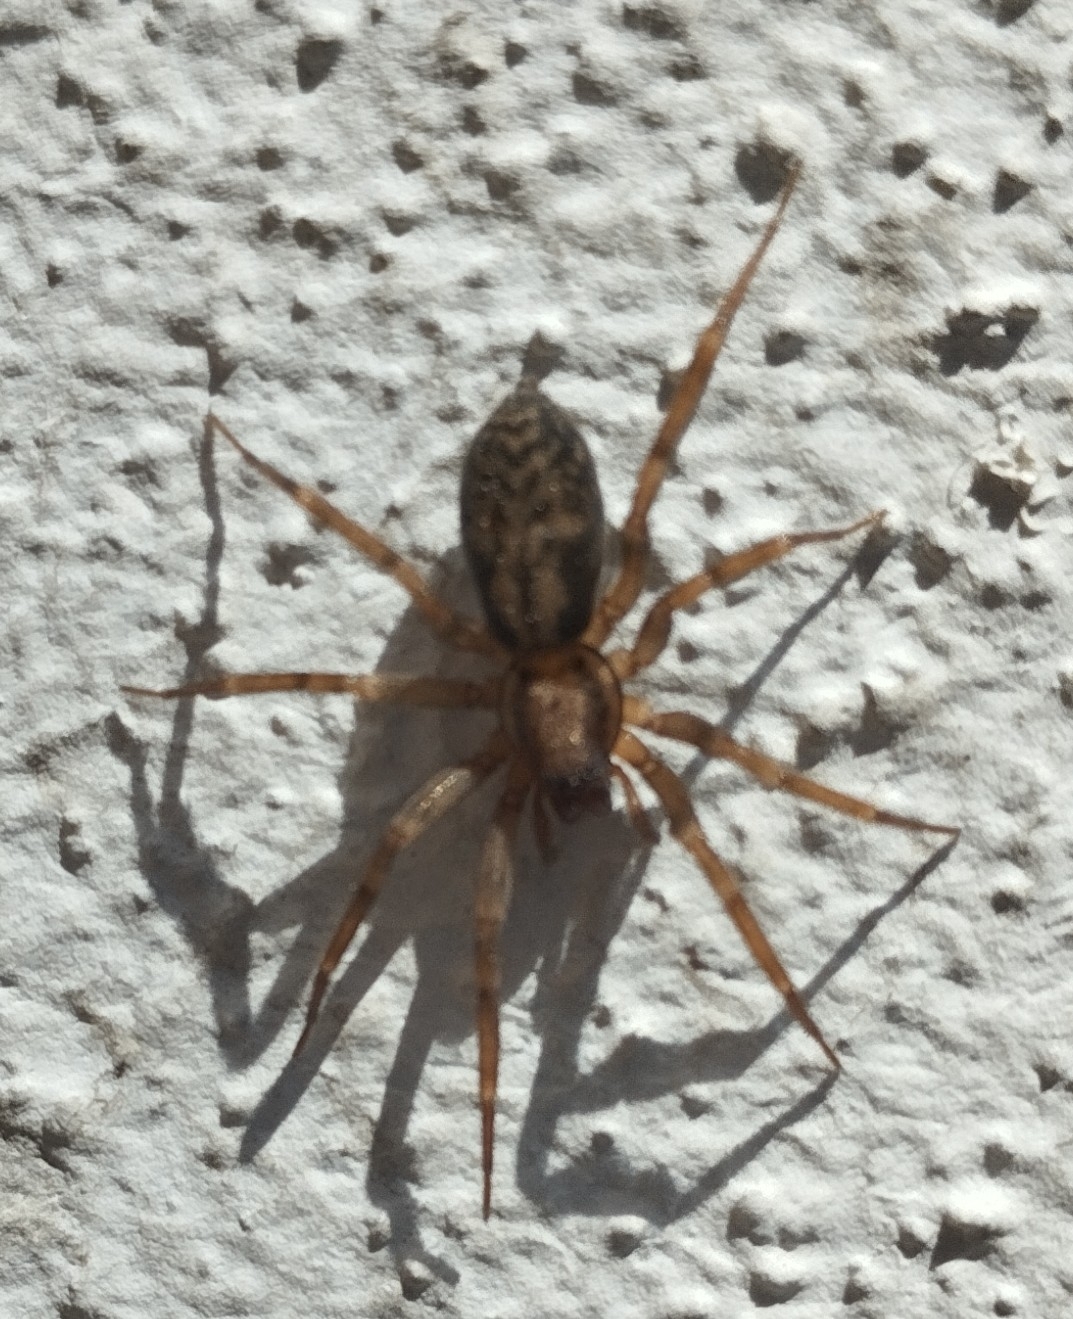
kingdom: Animalia
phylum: Arthropoda
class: Arachnida
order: Araneae
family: Liocranidae
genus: Liocranum
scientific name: Liocranum rupicola
